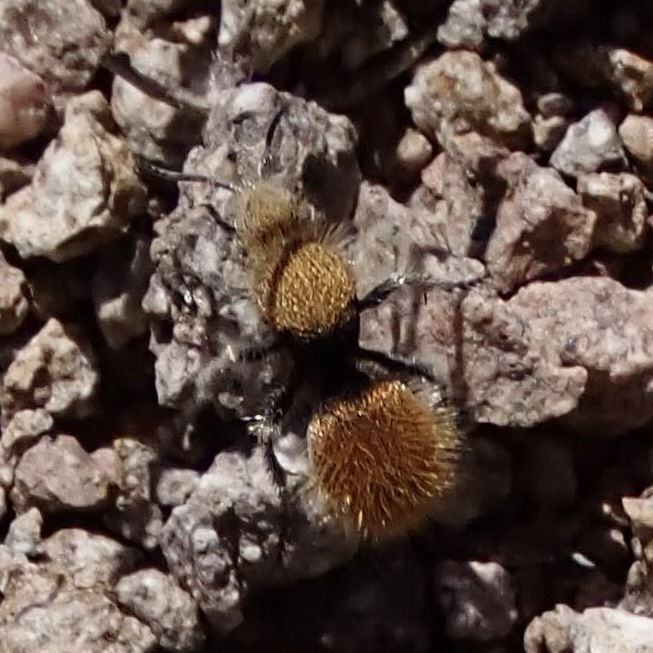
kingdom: Animalia
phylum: Arthropoda
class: Insecta
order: Hymenoptera
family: Mutillidae
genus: Dasymutilla
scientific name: Dasymutilla
